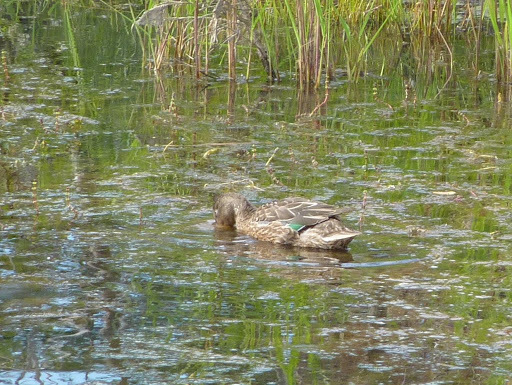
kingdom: Animalia
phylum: Chordata
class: Aves
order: Anseriformes
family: Anatidae
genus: Spatula
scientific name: Spatula clypeata
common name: Northern shoveler
